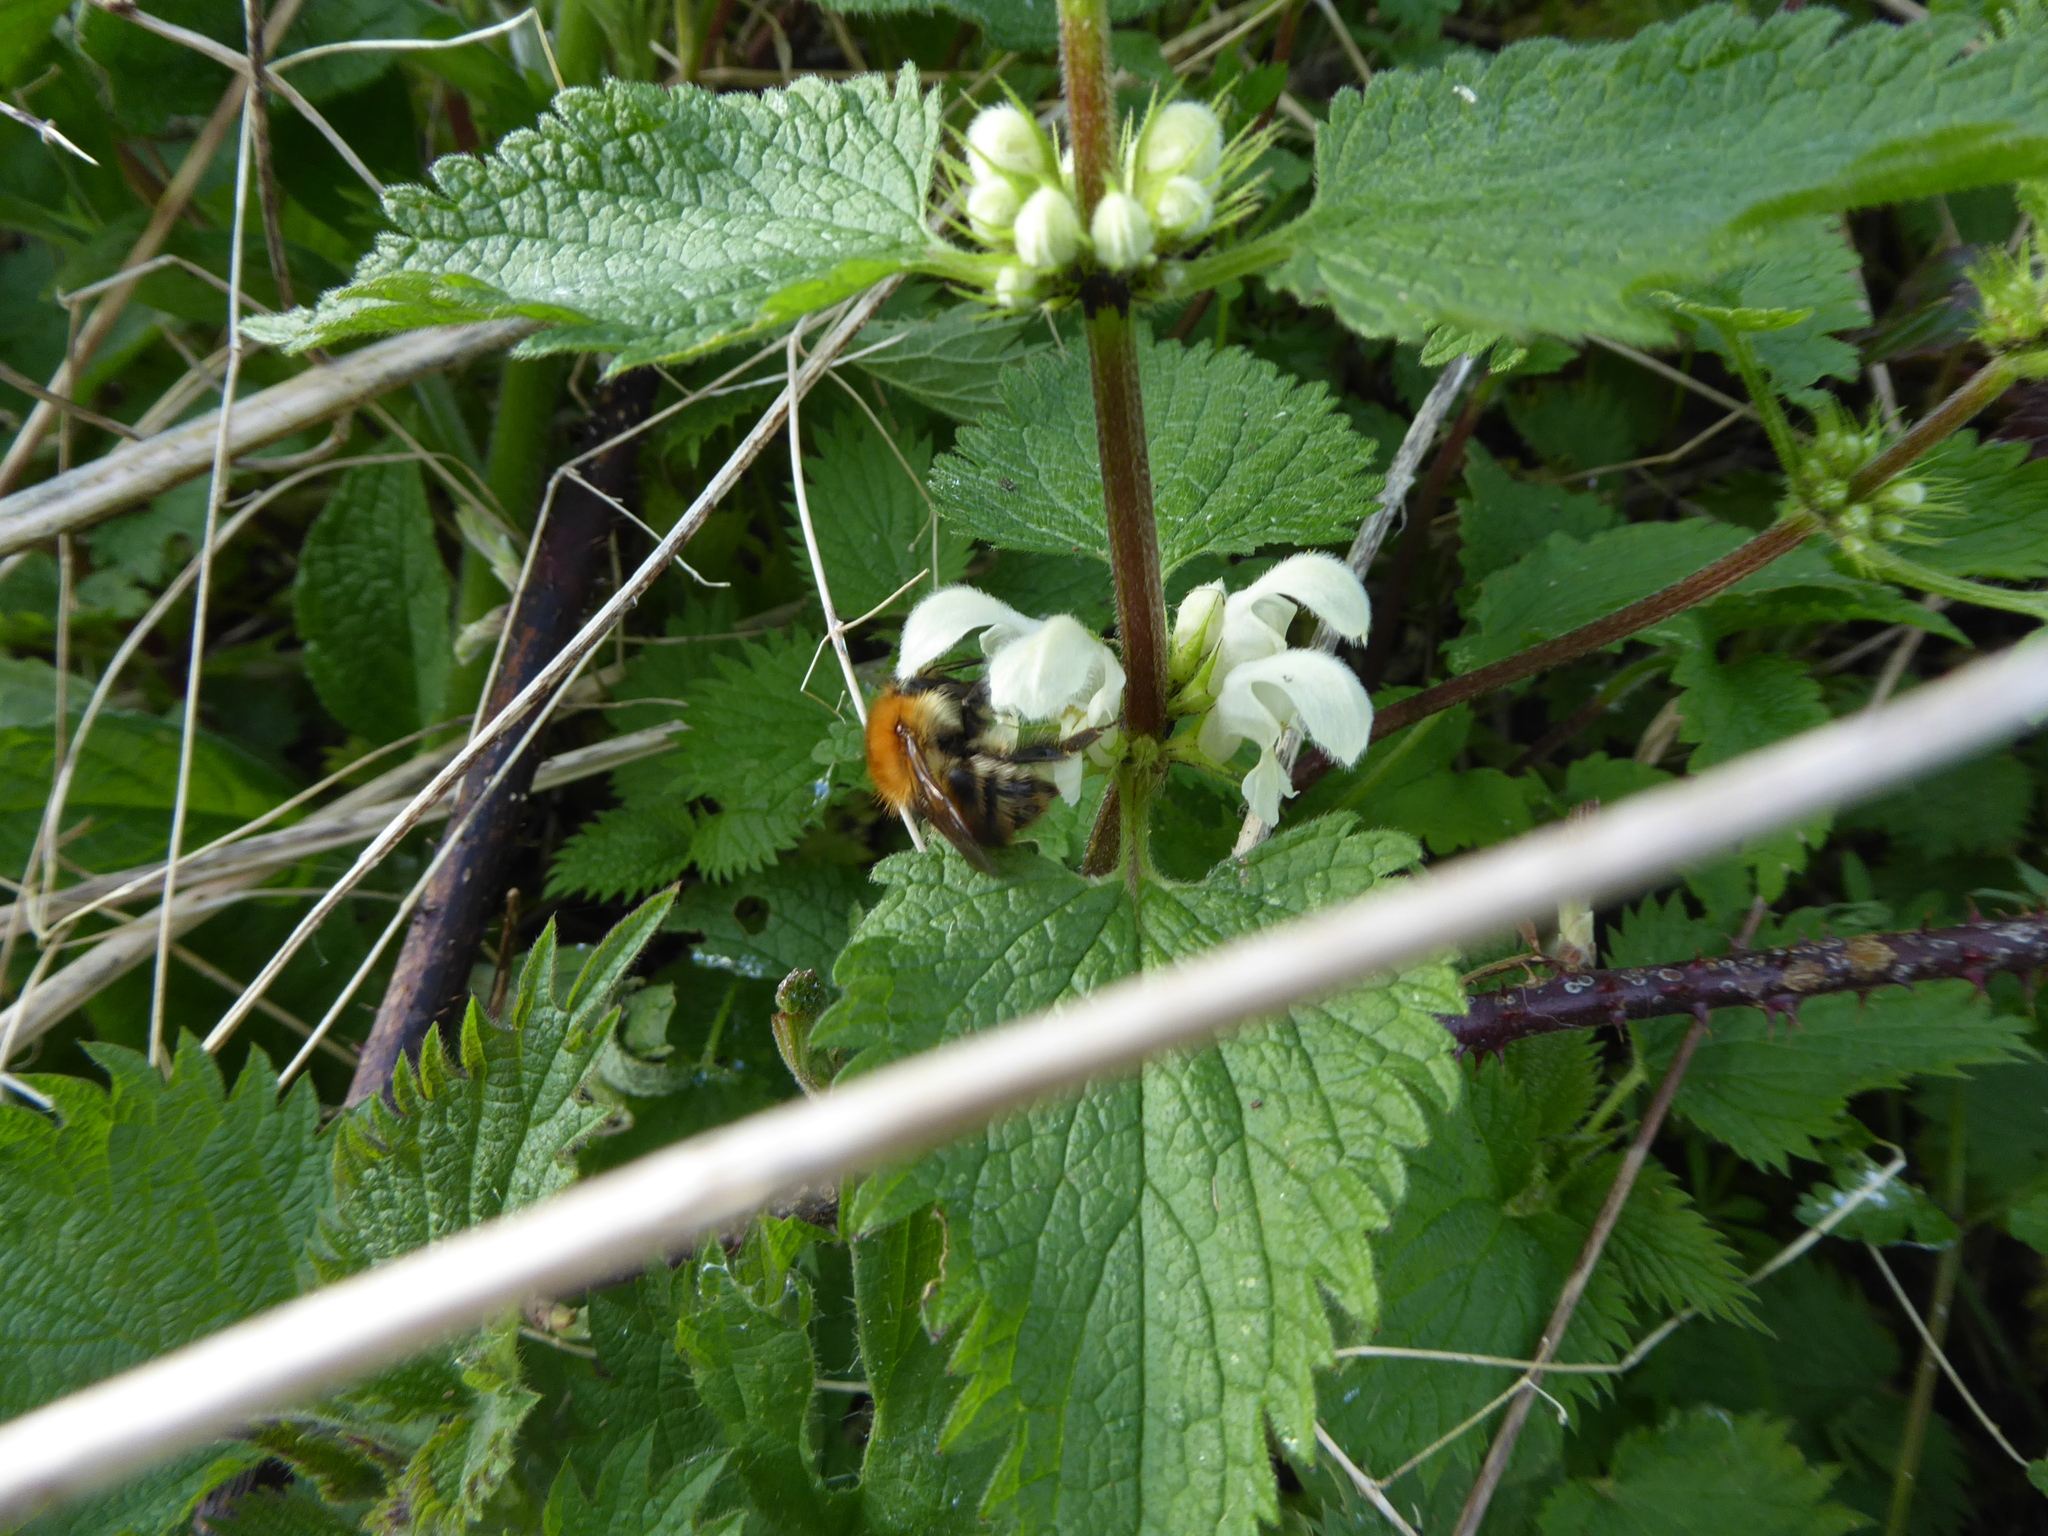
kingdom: Animalia
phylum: Arthropoda
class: Insecta
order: Hymenoptera
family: Apidae
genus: Bombus
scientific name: Bombus pascuorum
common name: Common carder bee
